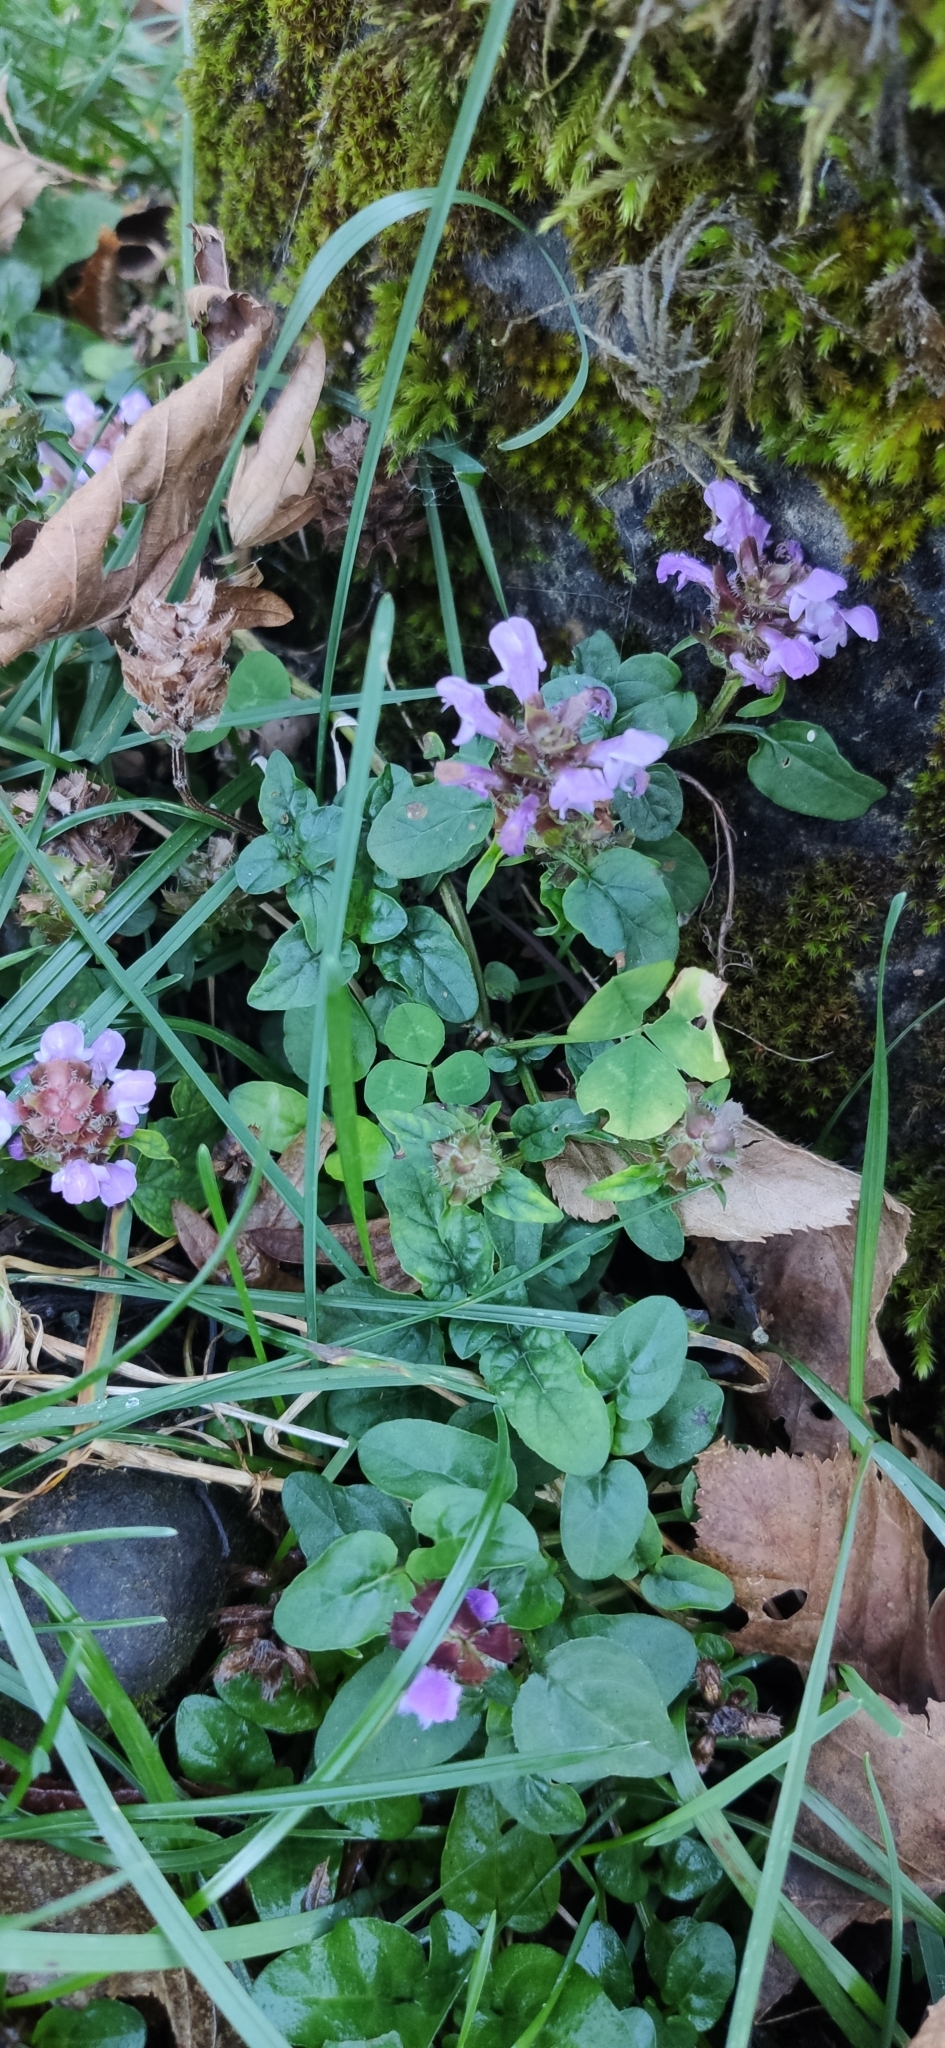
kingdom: Plantae
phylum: Tracheophyta
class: Magnoliopsida
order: Lamiales
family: Lamiaceae
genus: Prunella
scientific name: Prunella vulgaris
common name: Heal-all
